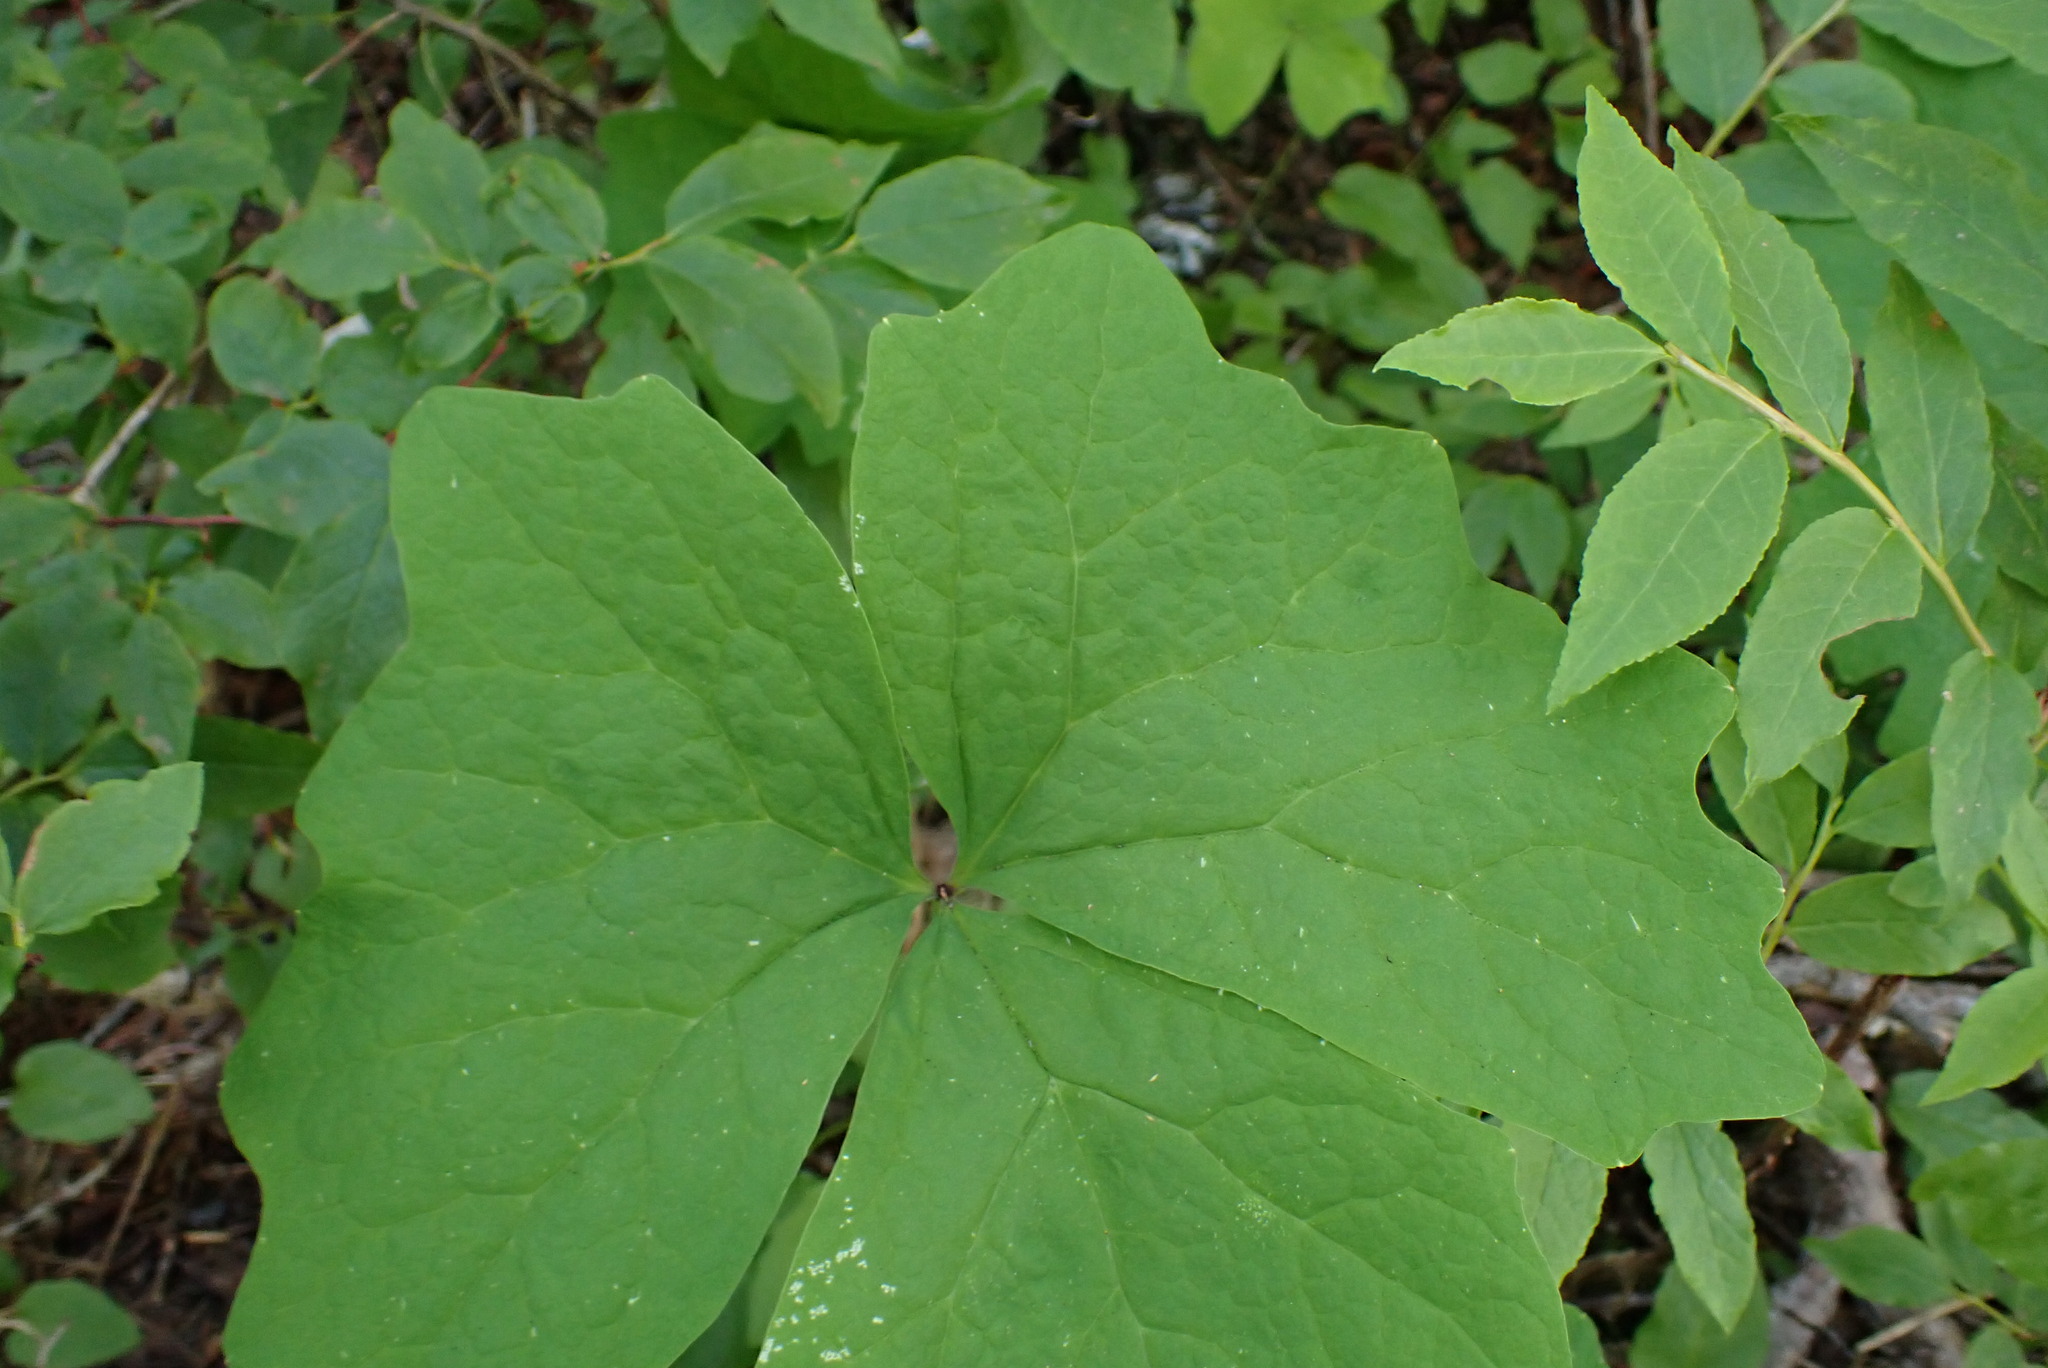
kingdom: Plantae
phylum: Tracheophyta
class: Magnoliopsida
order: Ranunculales
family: Berberidaceae
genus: Achlys
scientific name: Achlys triphylla
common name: Vanilla-leaf
